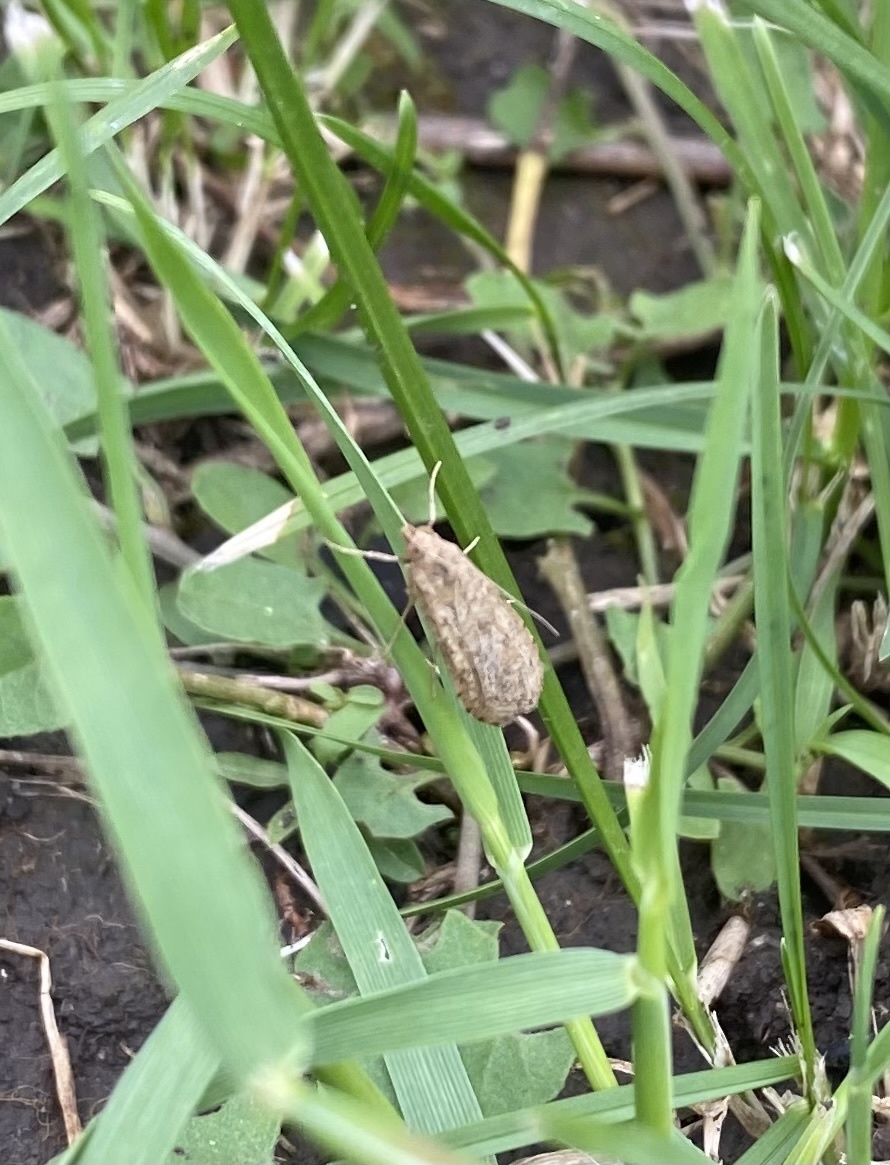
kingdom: Animalia
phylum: Arthropoda
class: Insecta
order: Lepidoptera
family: Crambidae
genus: Nomophila
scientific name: Nomophila noctuella
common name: Rush veneer
